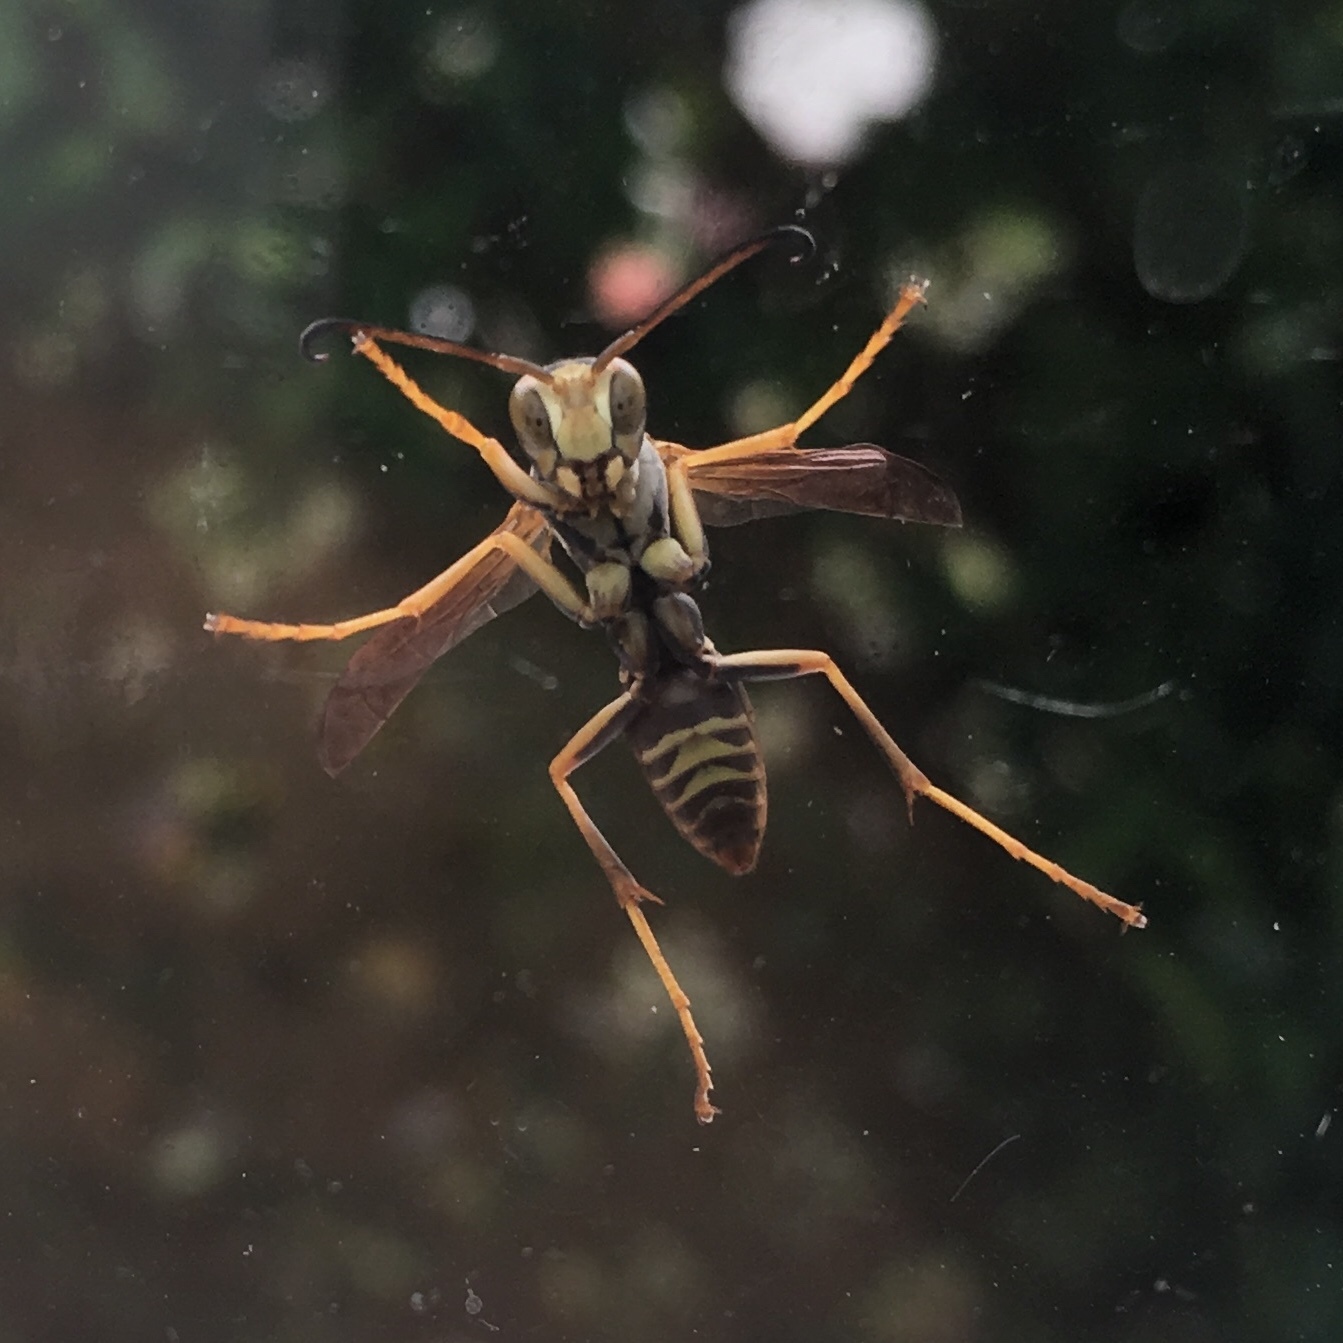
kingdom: Animalia
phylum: Arthropoda
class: Insecta
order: Hymenoptera
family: Eumenidae
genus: Polistes
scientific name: Polistes fuscatus
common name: Dark paper wasp
